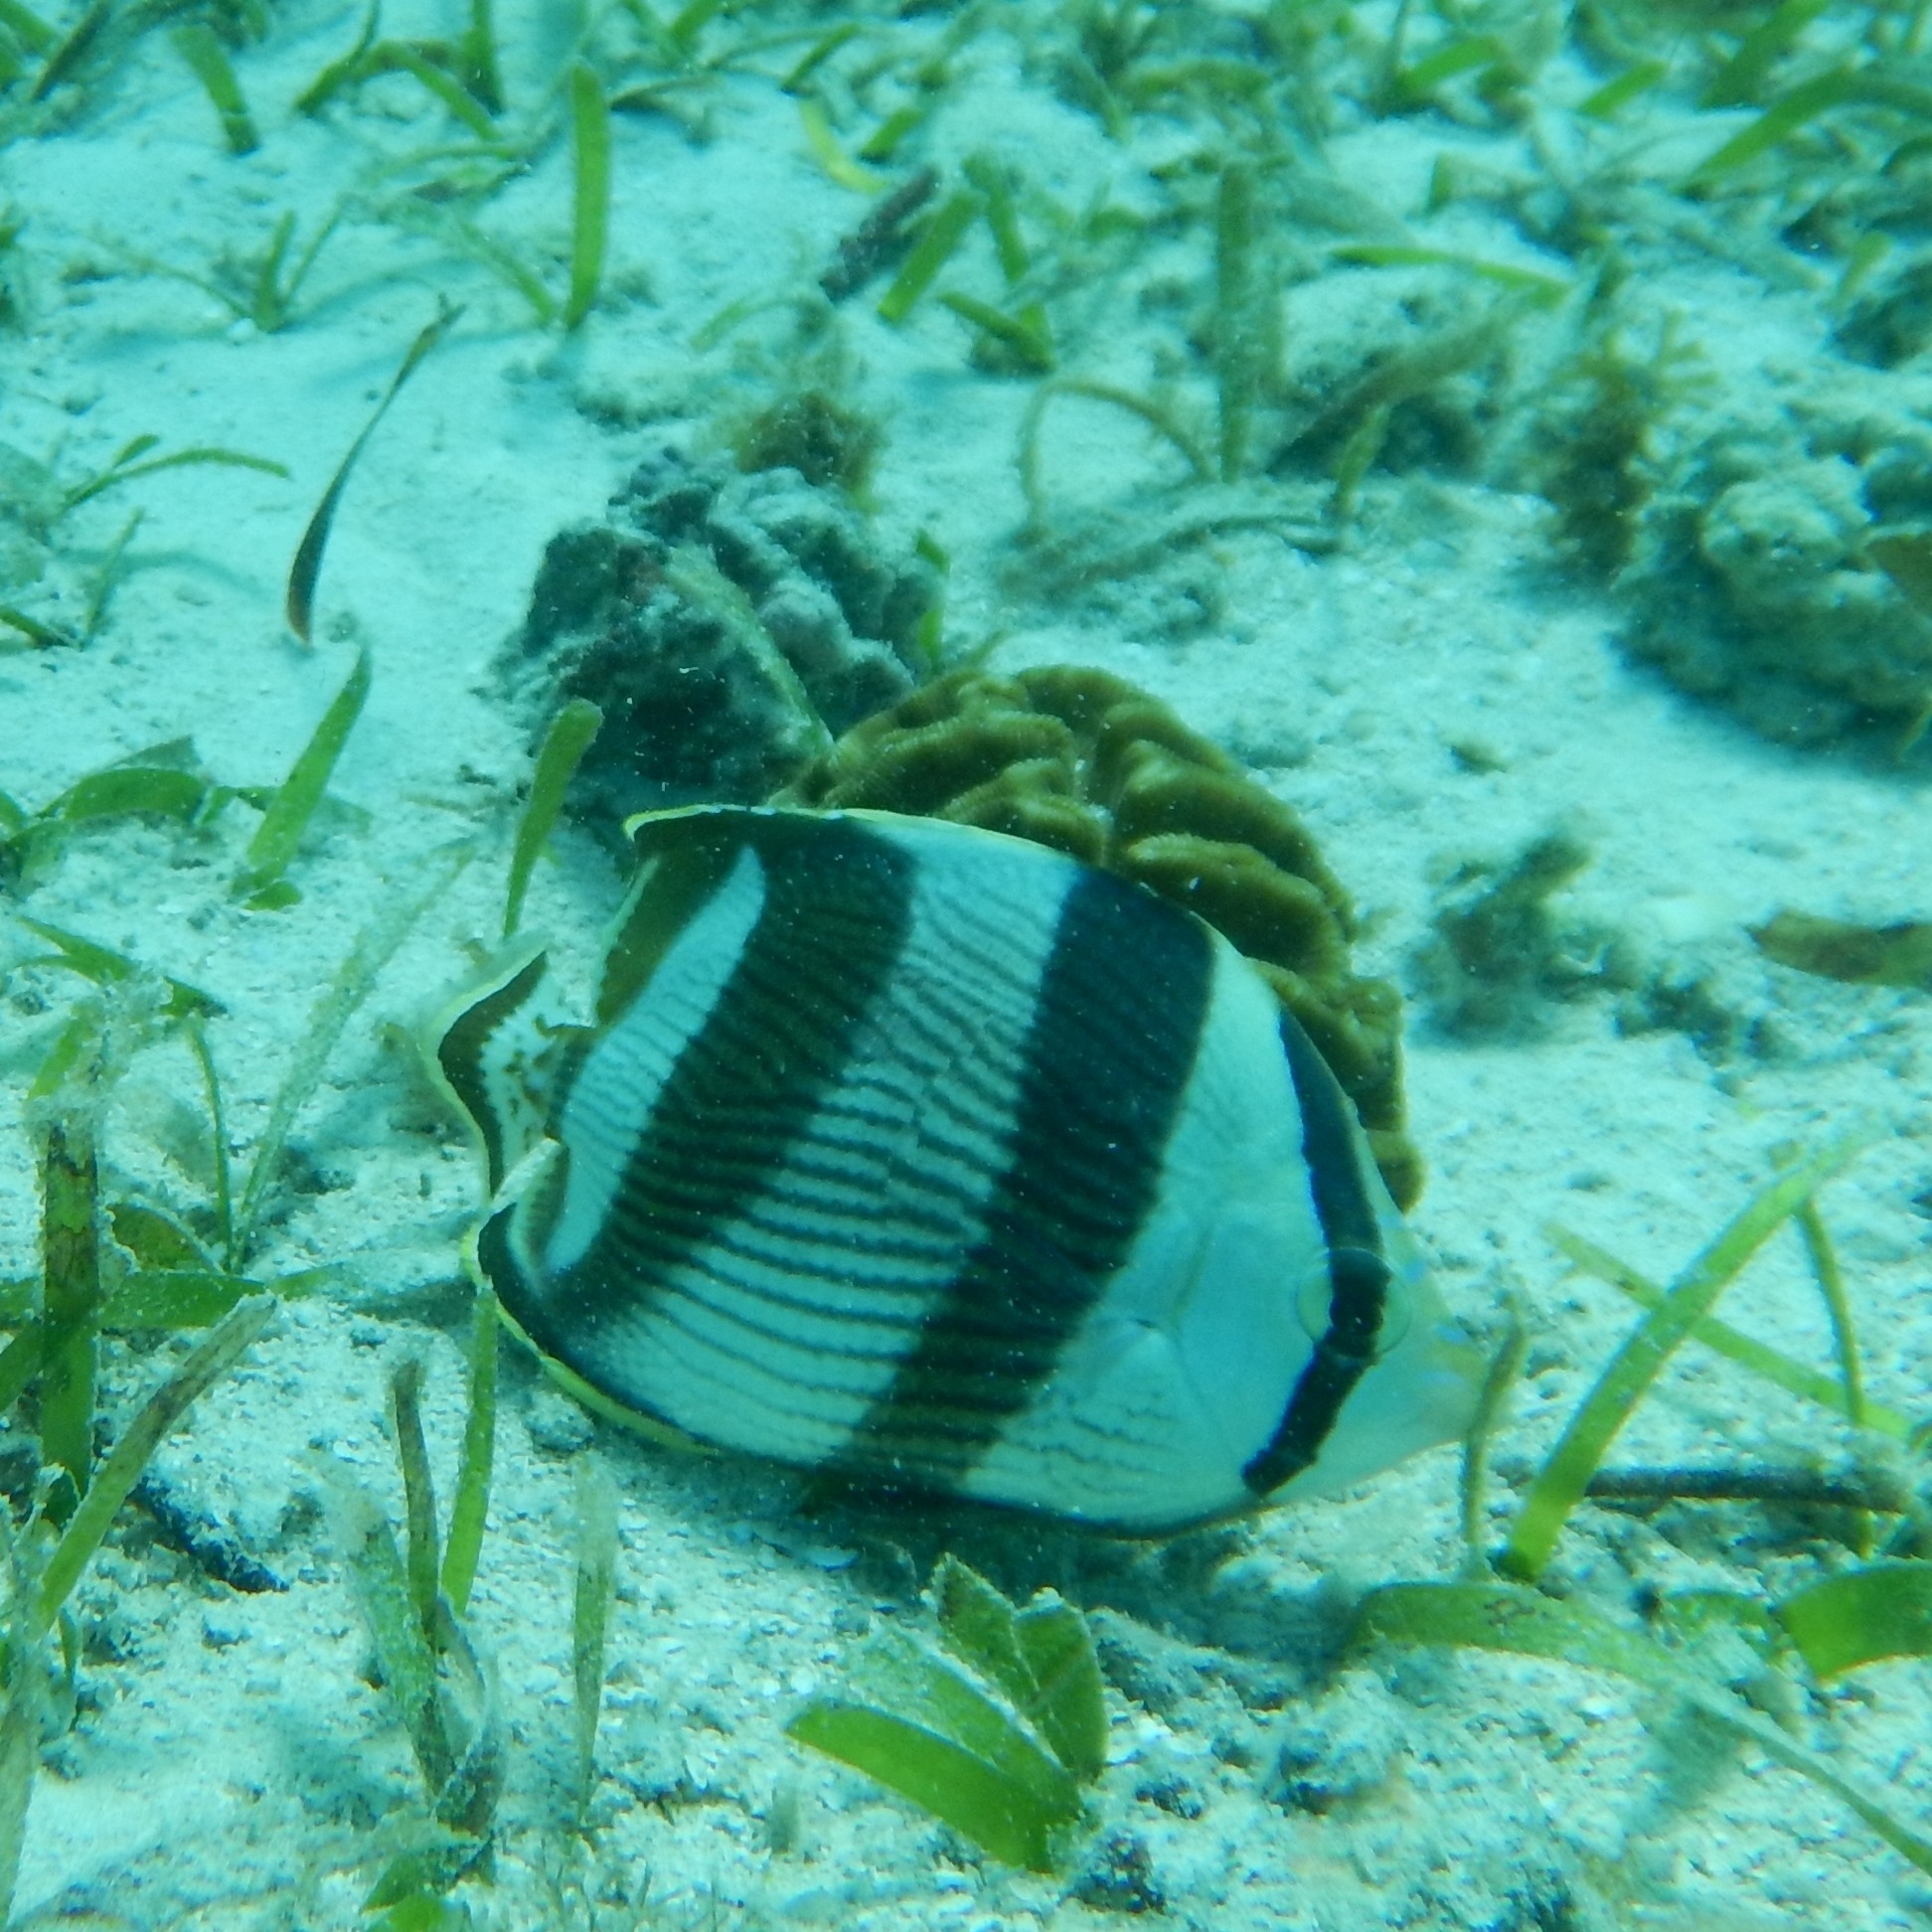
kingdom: Animalia
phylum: Chordata
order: Perciformes
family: Chaetodontidae
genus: Chaetodon
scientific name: Chaetodon striatus
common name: Banded butterflyfish
